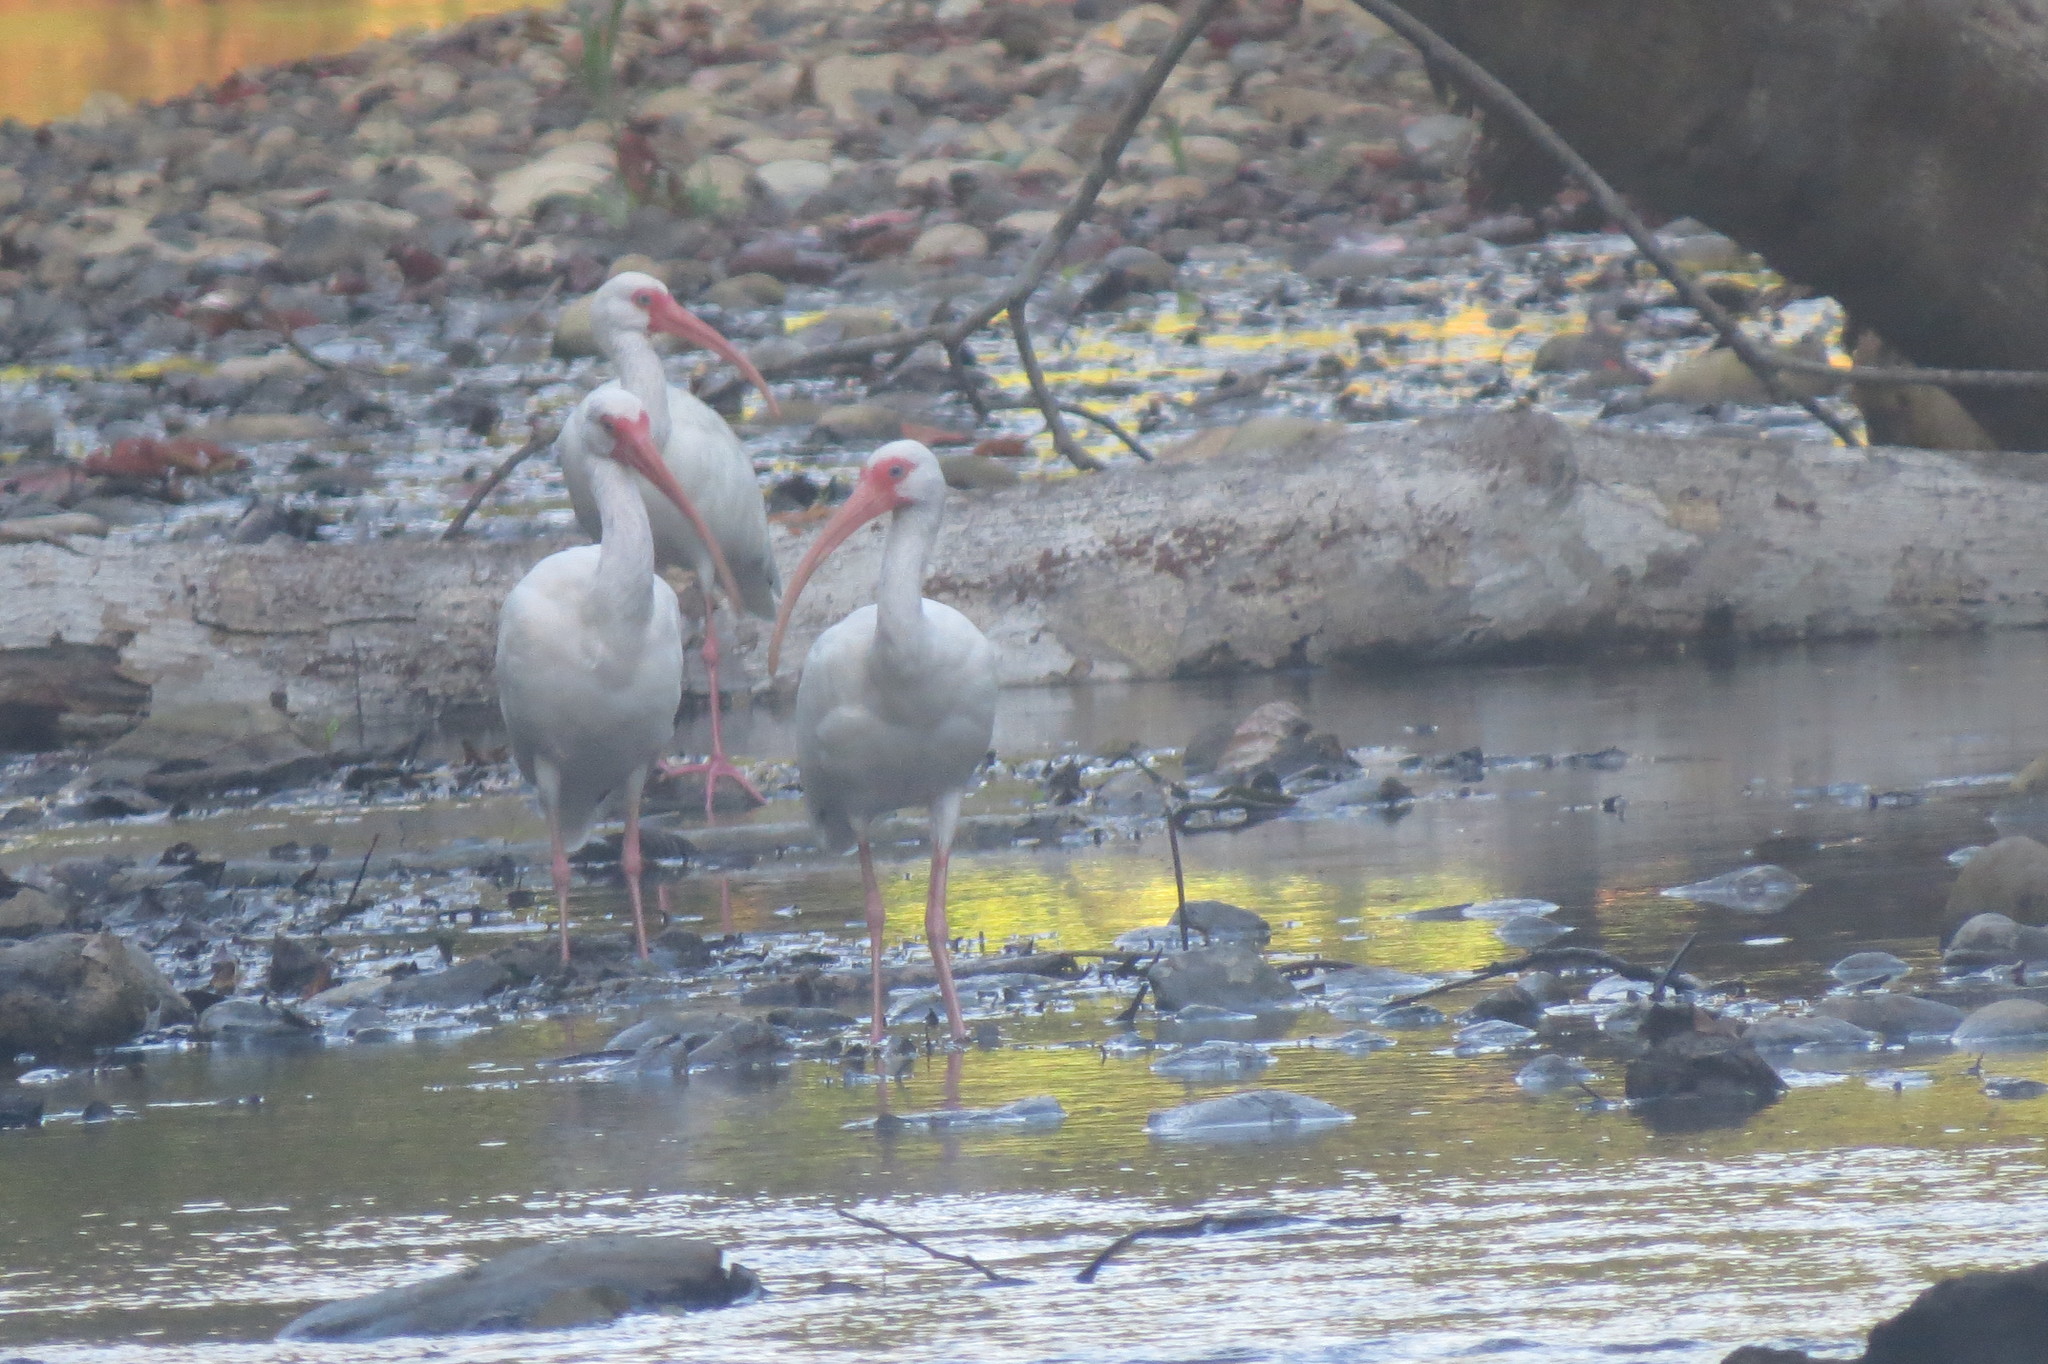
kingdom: Animalia
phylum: Chordata
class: Aves
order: Pelecaniformes
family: Threskiornithidae
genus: Eudocimus
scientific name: Eudocimus albus
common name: White ibis
